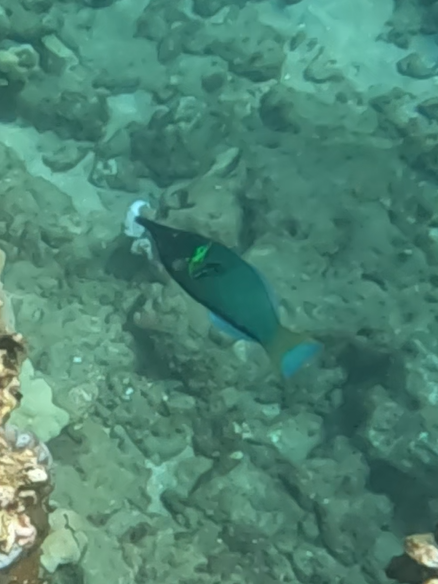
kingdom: Animalia
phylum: Chordata
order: Perciformes
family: Labridae
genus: Gomphosus
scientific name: Gomphosus varius
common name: Bird wrasse
